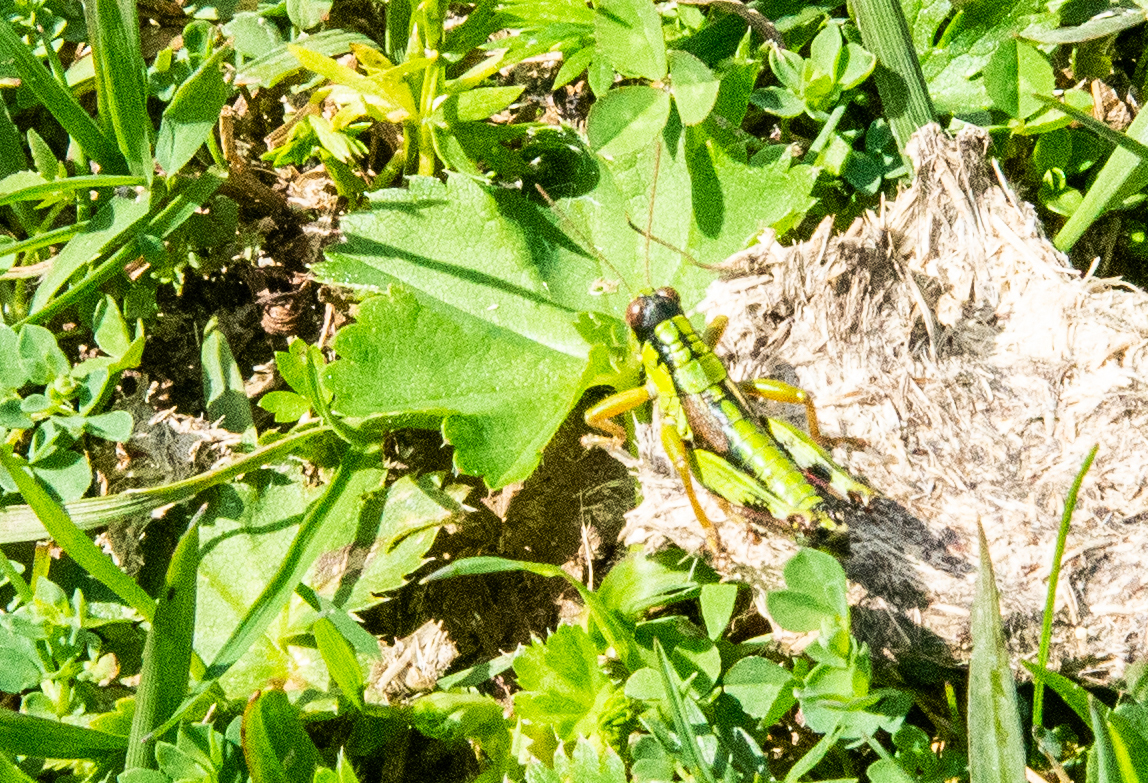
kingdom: Animalia
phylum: Arthropoda
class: Insecta
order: Orthoptera
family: Acrididae
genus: Miramella
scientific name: Miramella alpina
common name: Green mountain grasshopper
